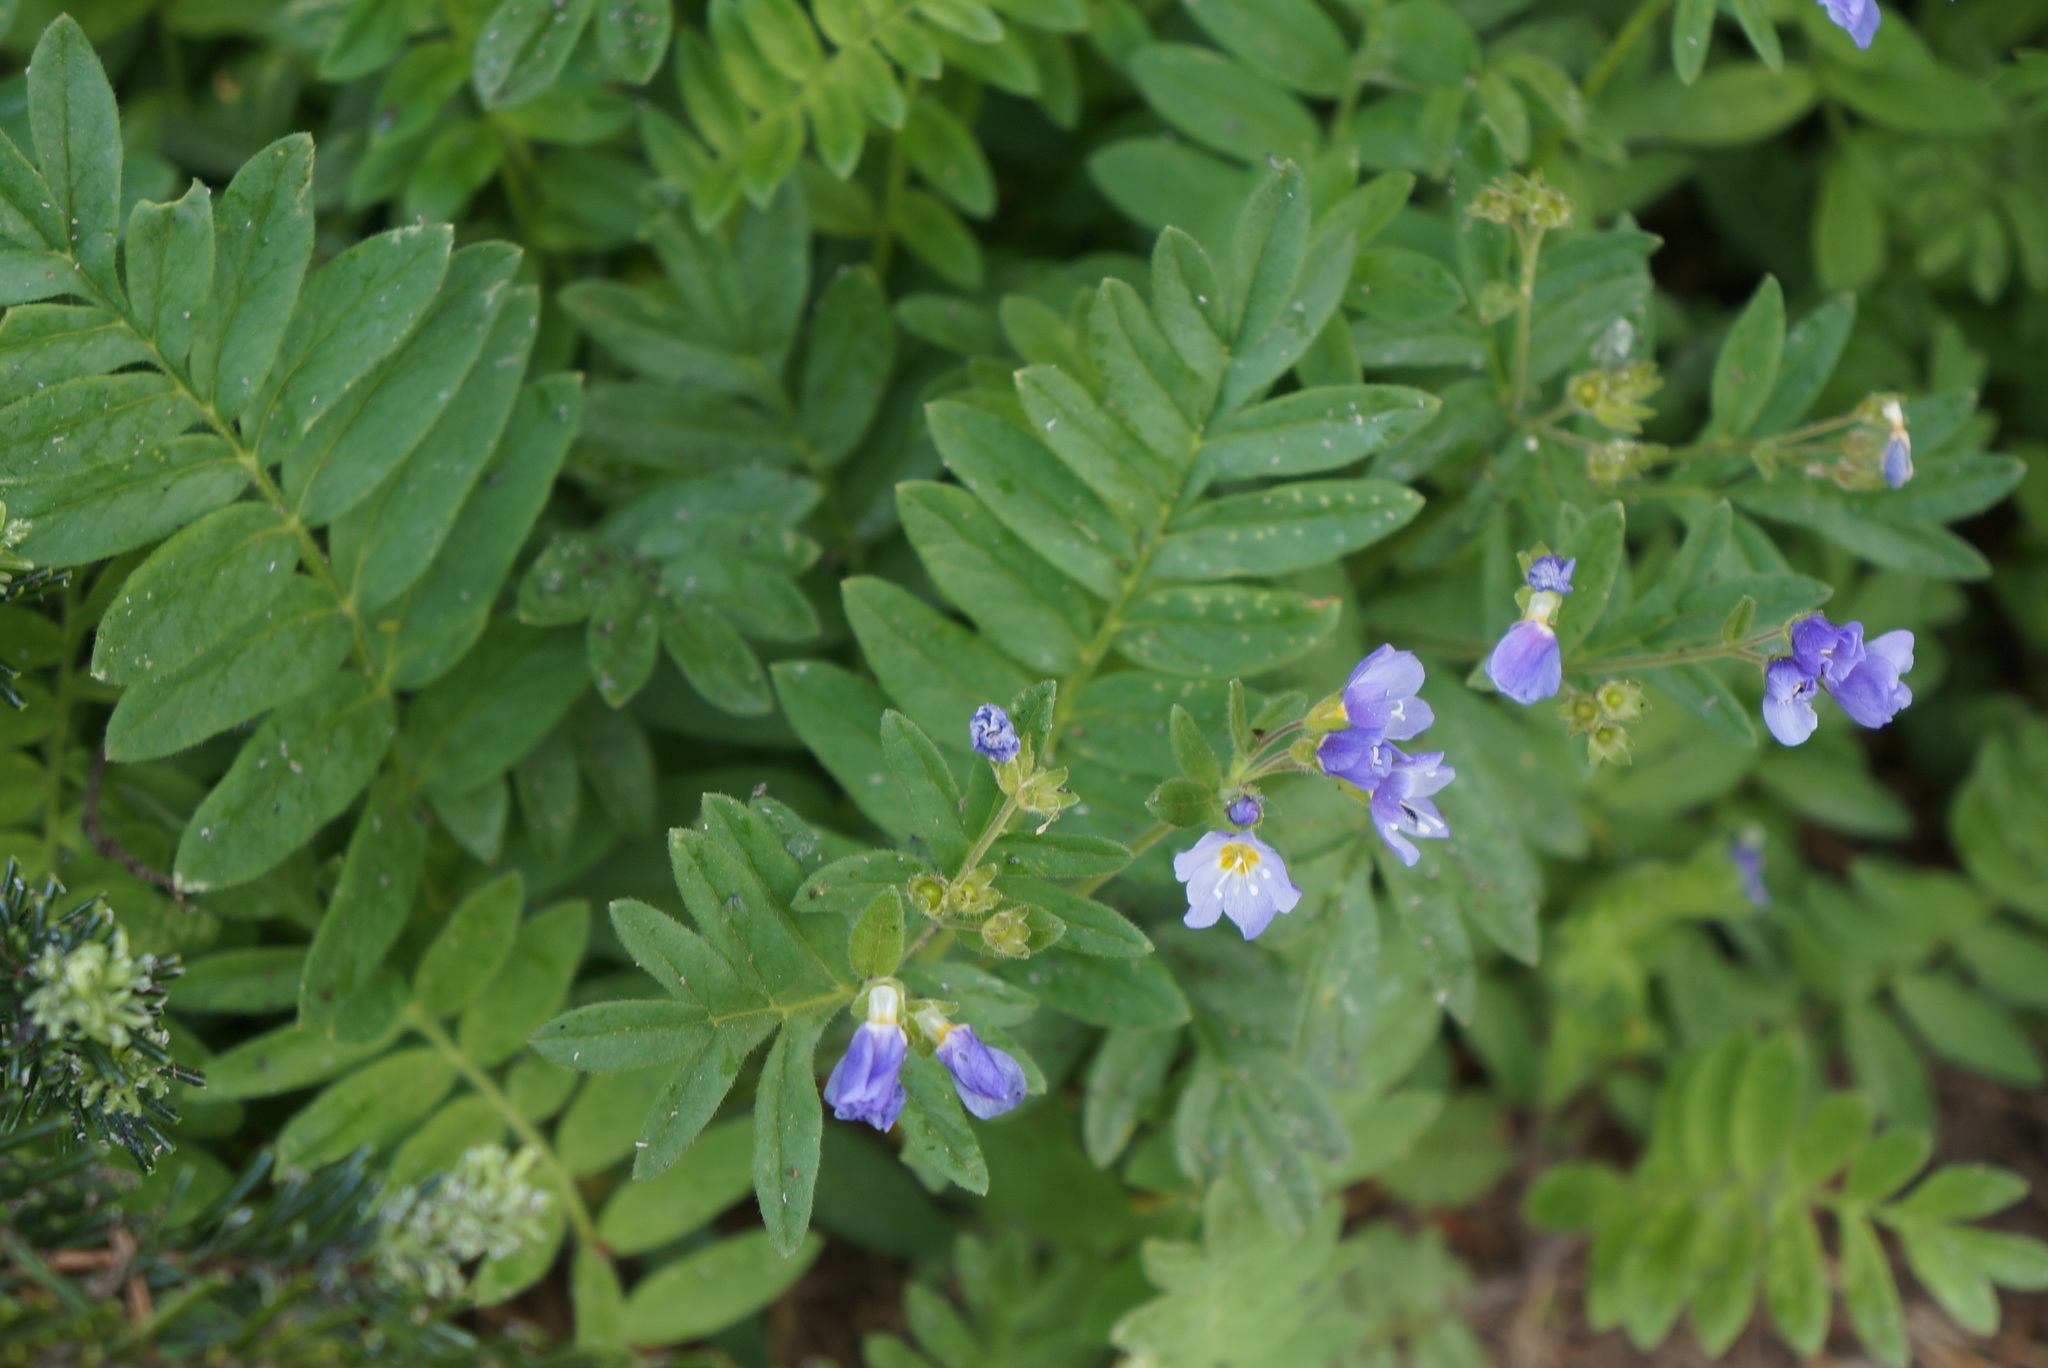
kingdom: Plantae
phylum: Tracheophyta
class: Magnoliopsida
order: Ericales
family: Polemoniaceae
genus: Polemonium
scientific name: Polemonium californicum
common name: California jacob's ladder
